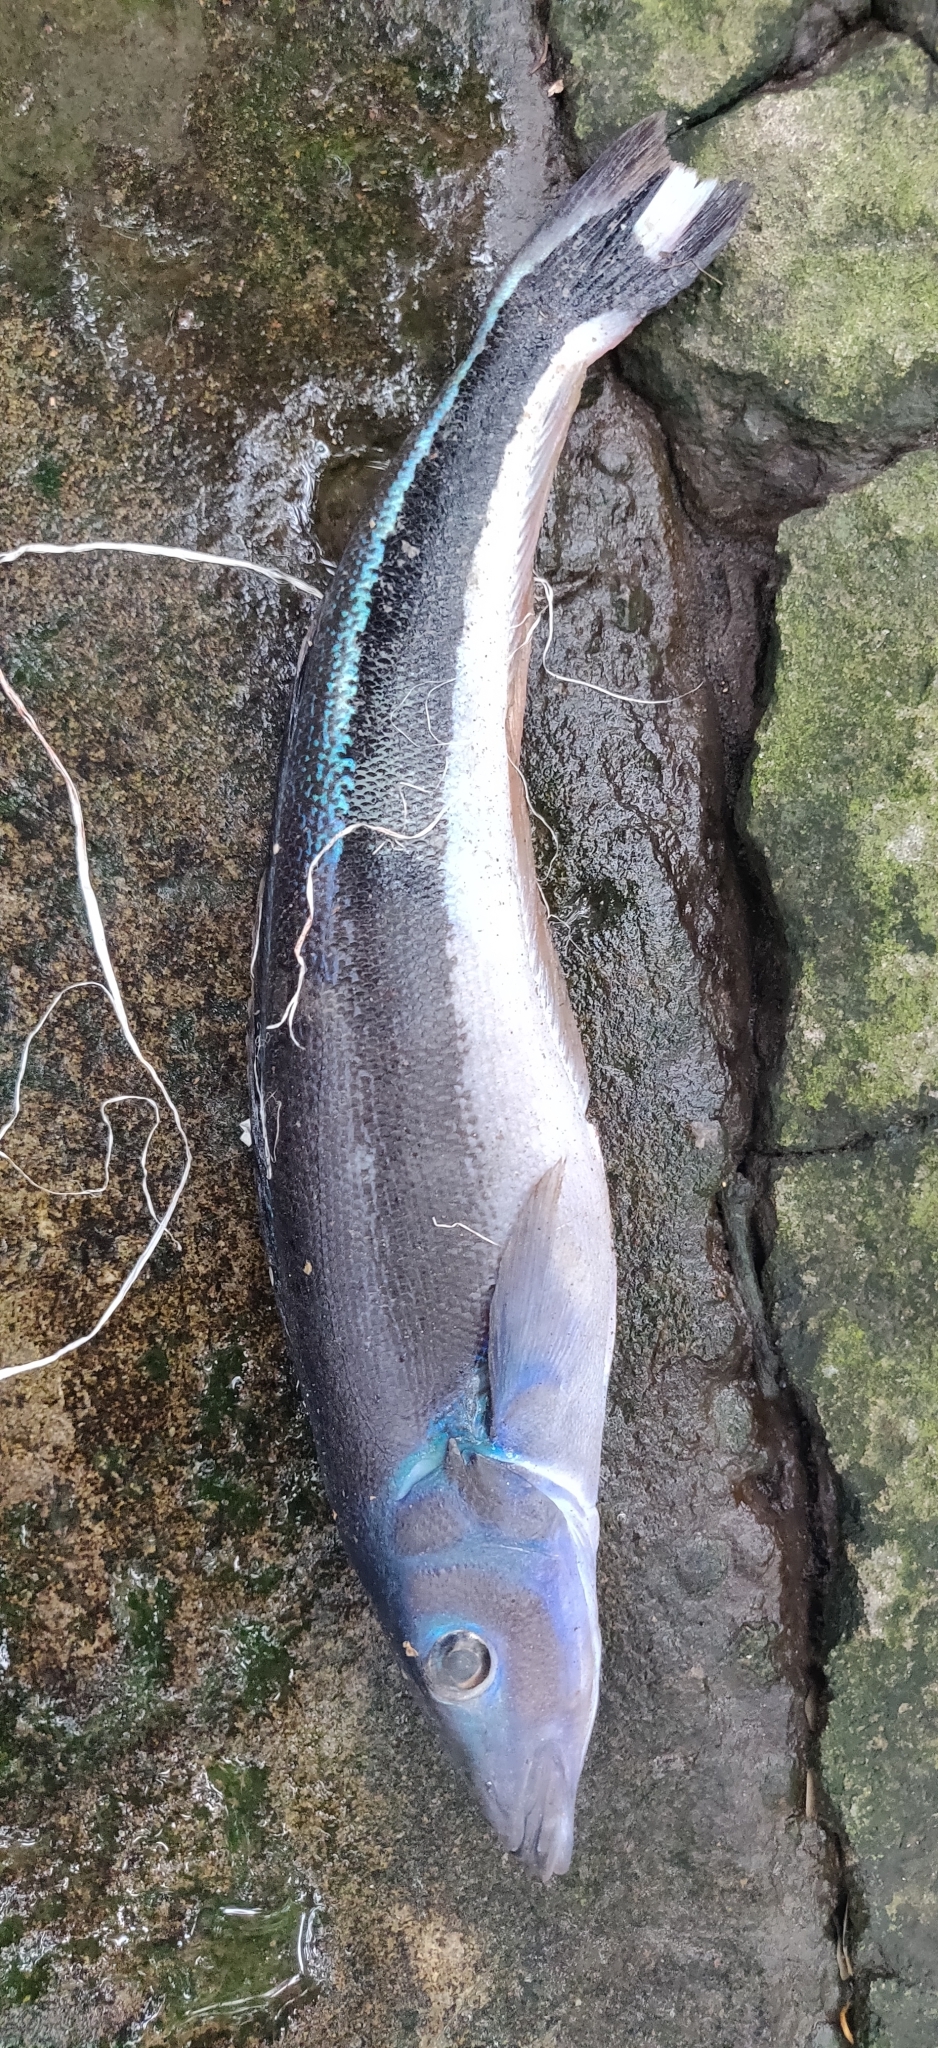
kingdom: Animalia
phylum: Chordata
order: Perciformes
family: Malacanthidae
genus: Malacanthus
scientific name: Malacanthus latovittatus
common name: Blue blanquillo
